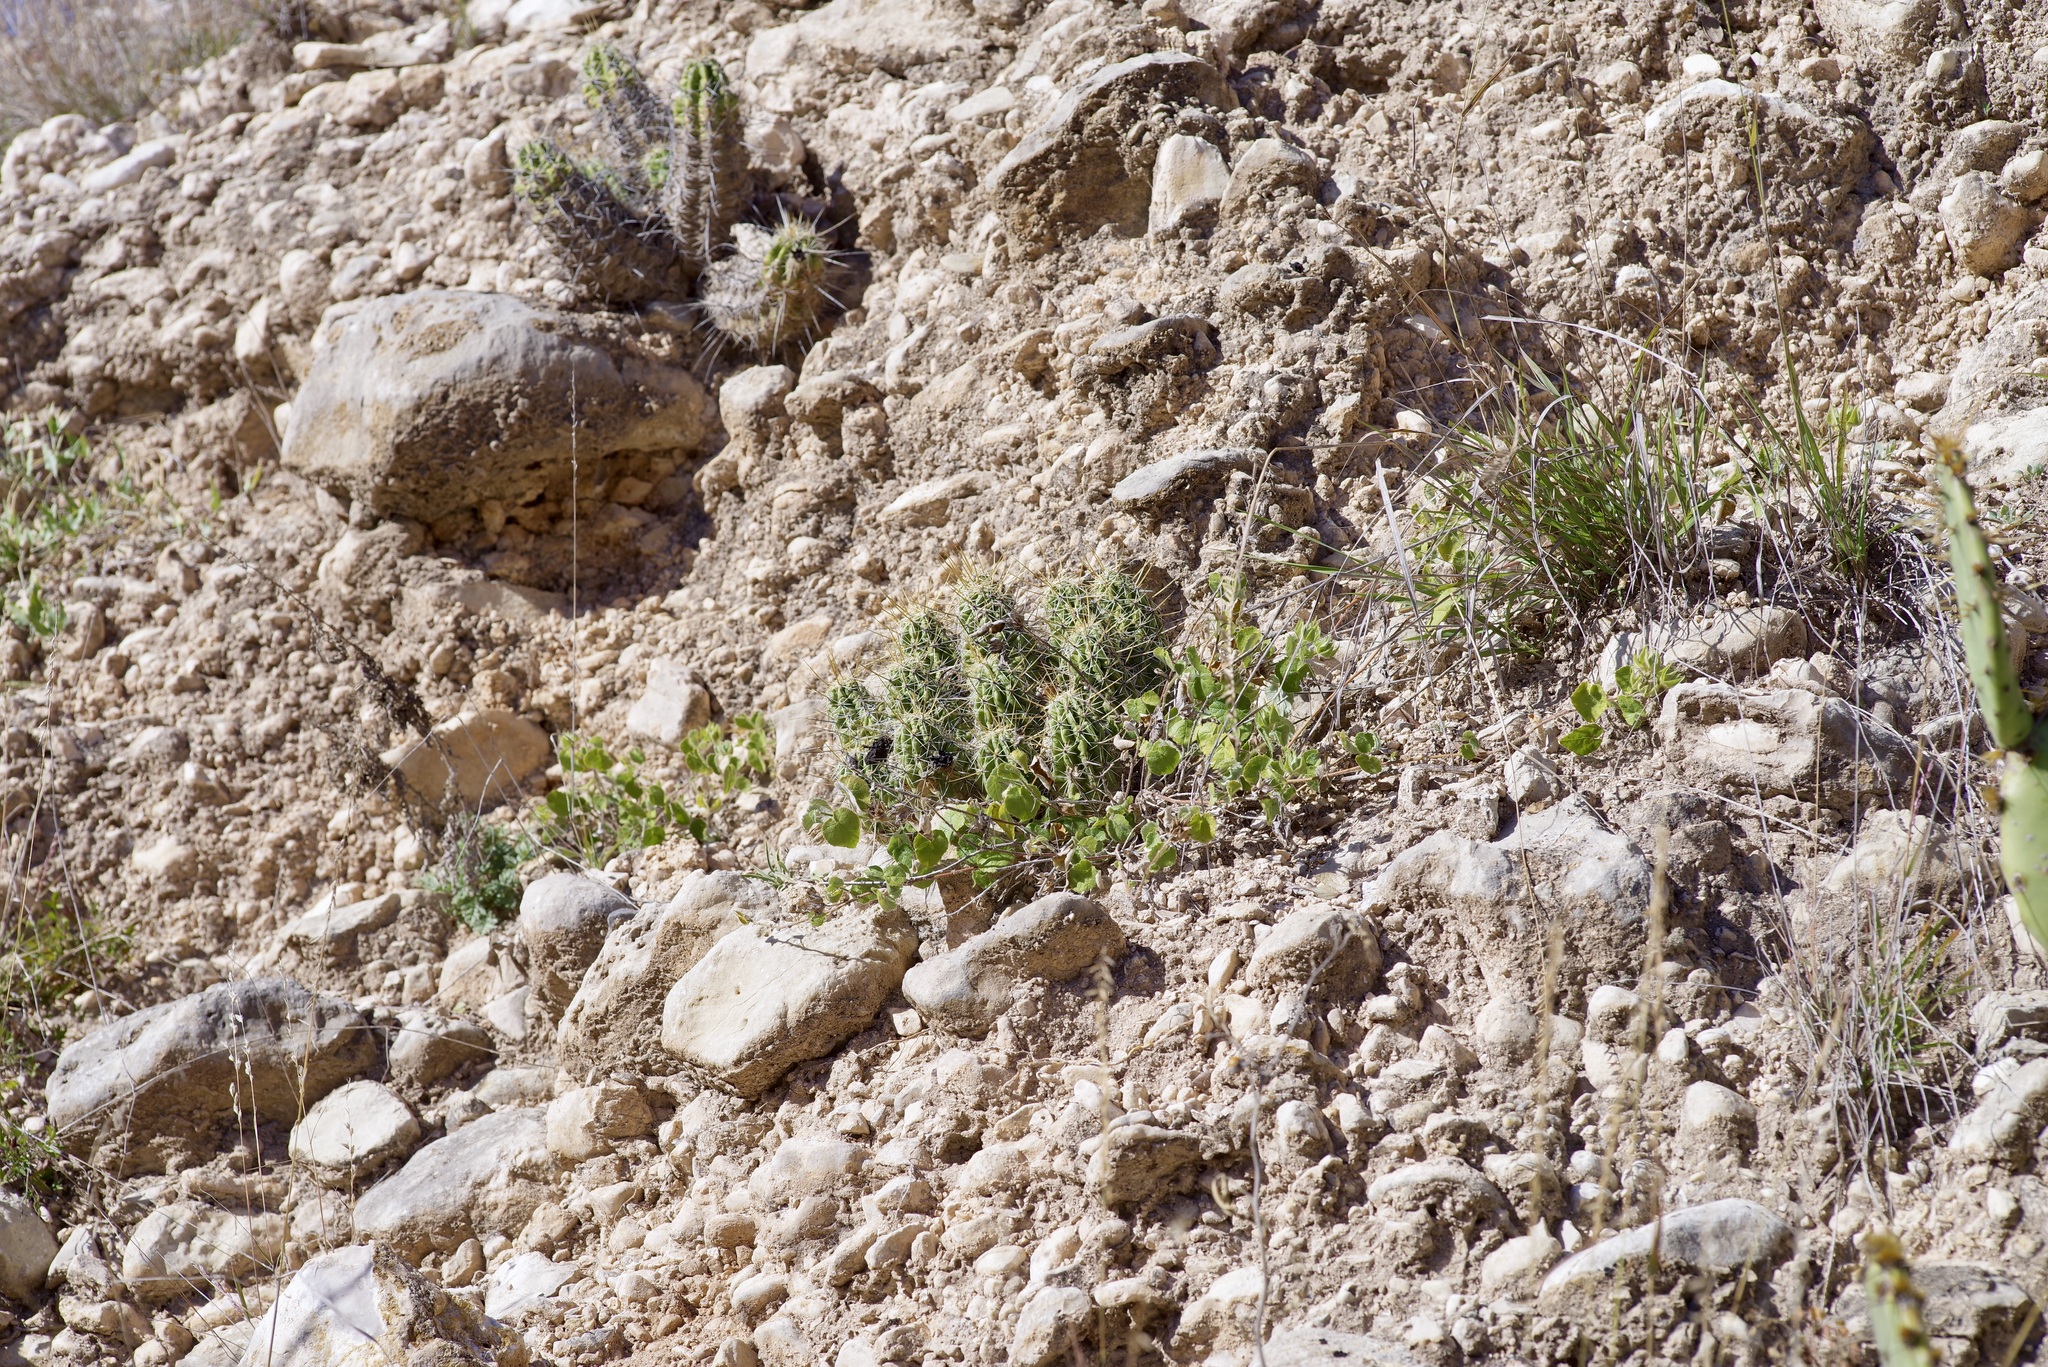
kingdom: Plantae
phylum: Tracheophyta
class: Magnoliopsida
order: Caryophyllales
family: Cactaceae
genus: Echinocereus
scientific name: Echinocereus enneacanthus
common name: Pitaya
